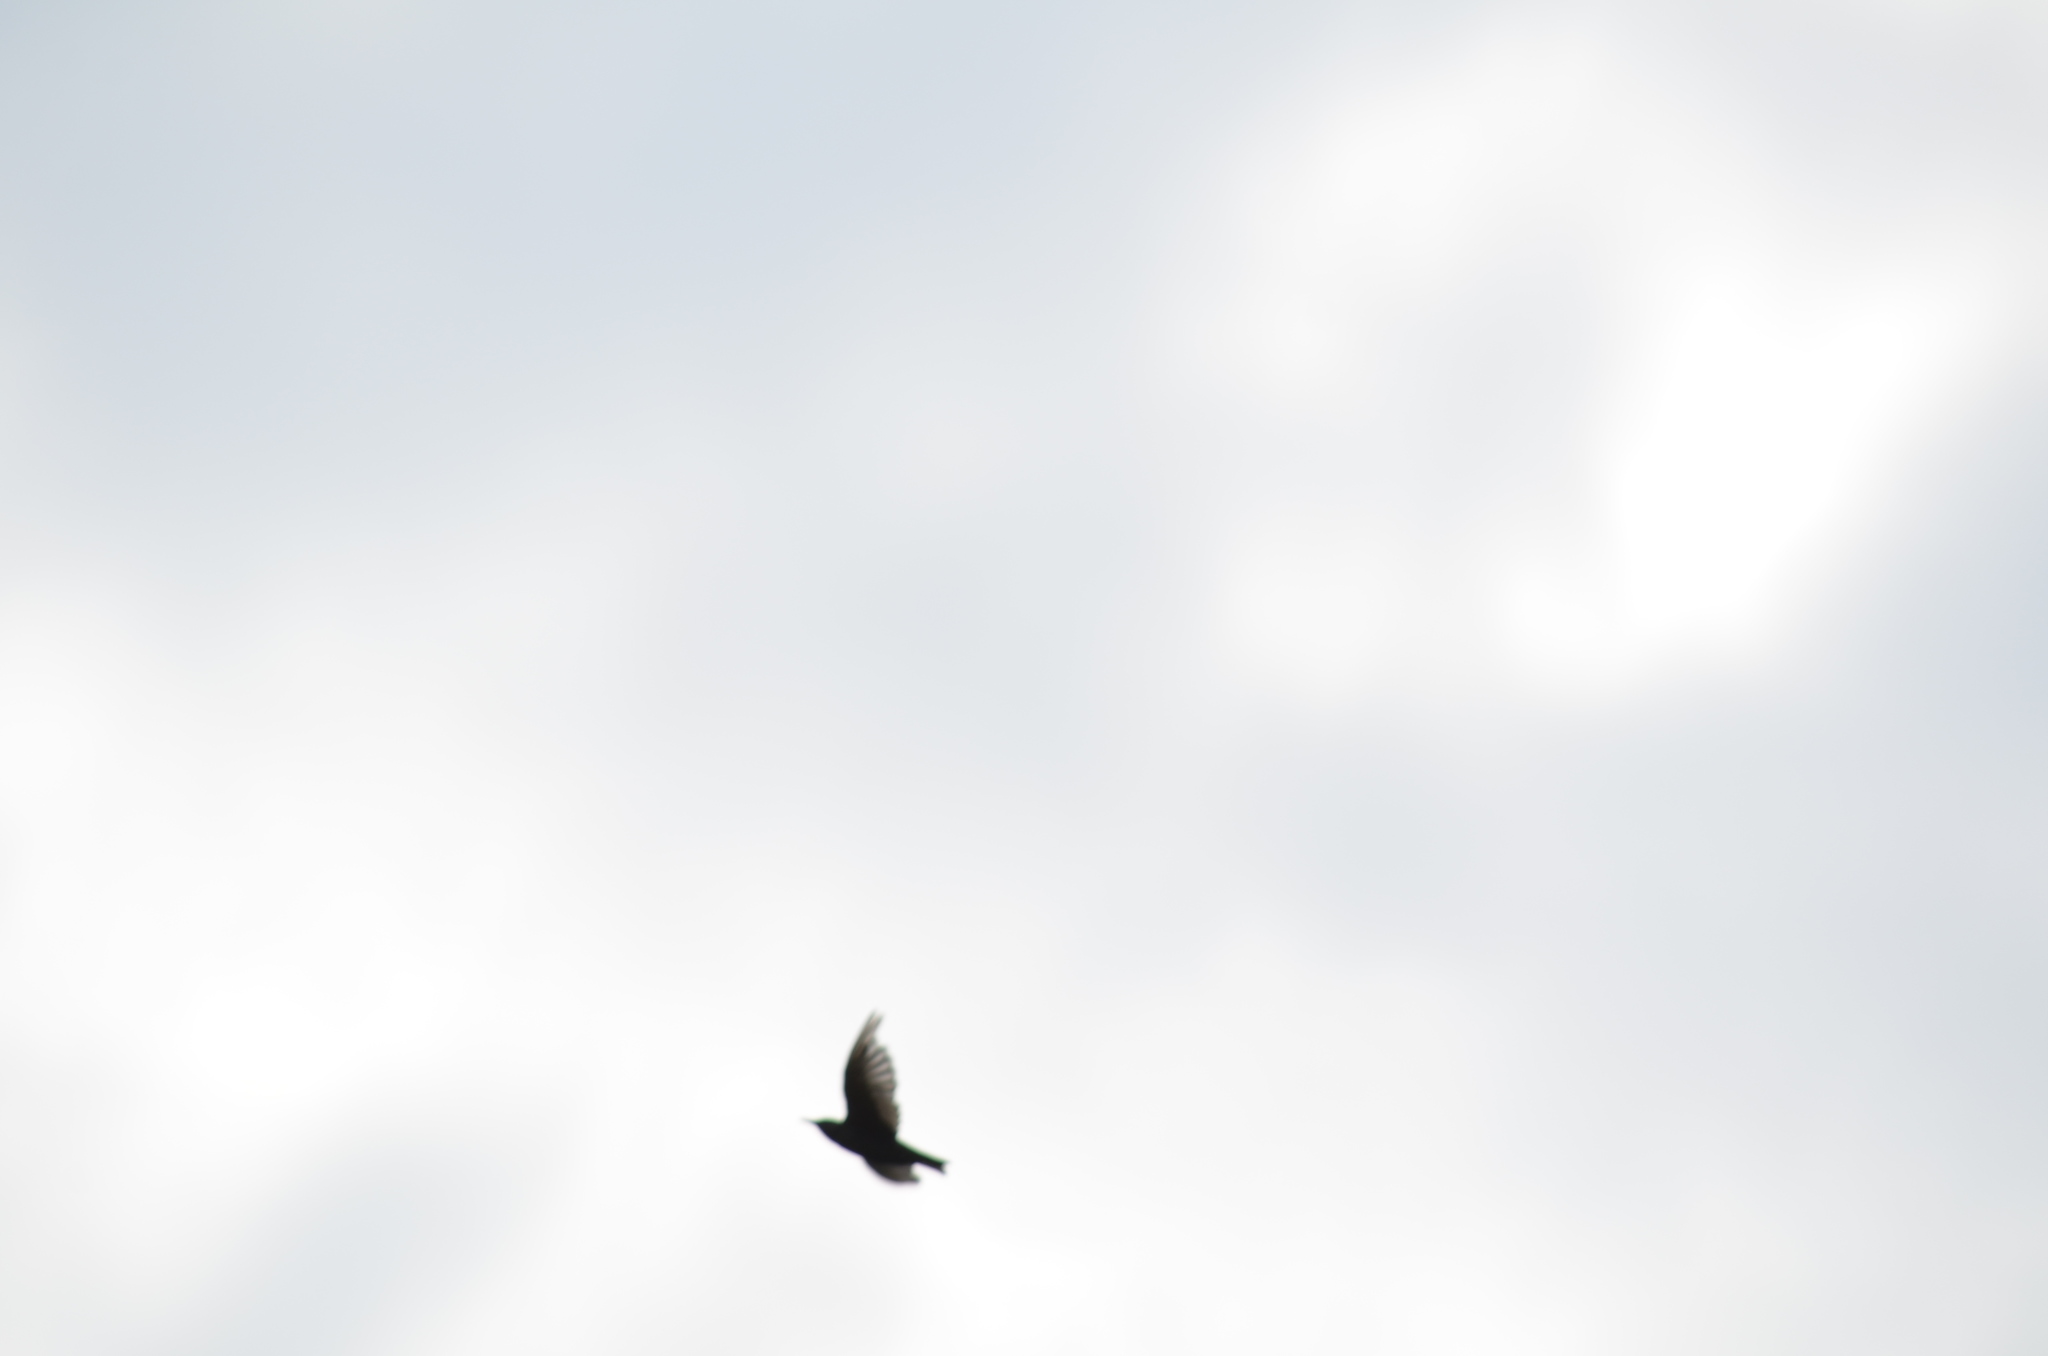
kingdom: Animalia
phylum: Chordata
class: Aves
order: Passeriformes
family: Sturnidae
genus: Sturnus
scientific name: Sturnus vulgaris
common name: Common starling
